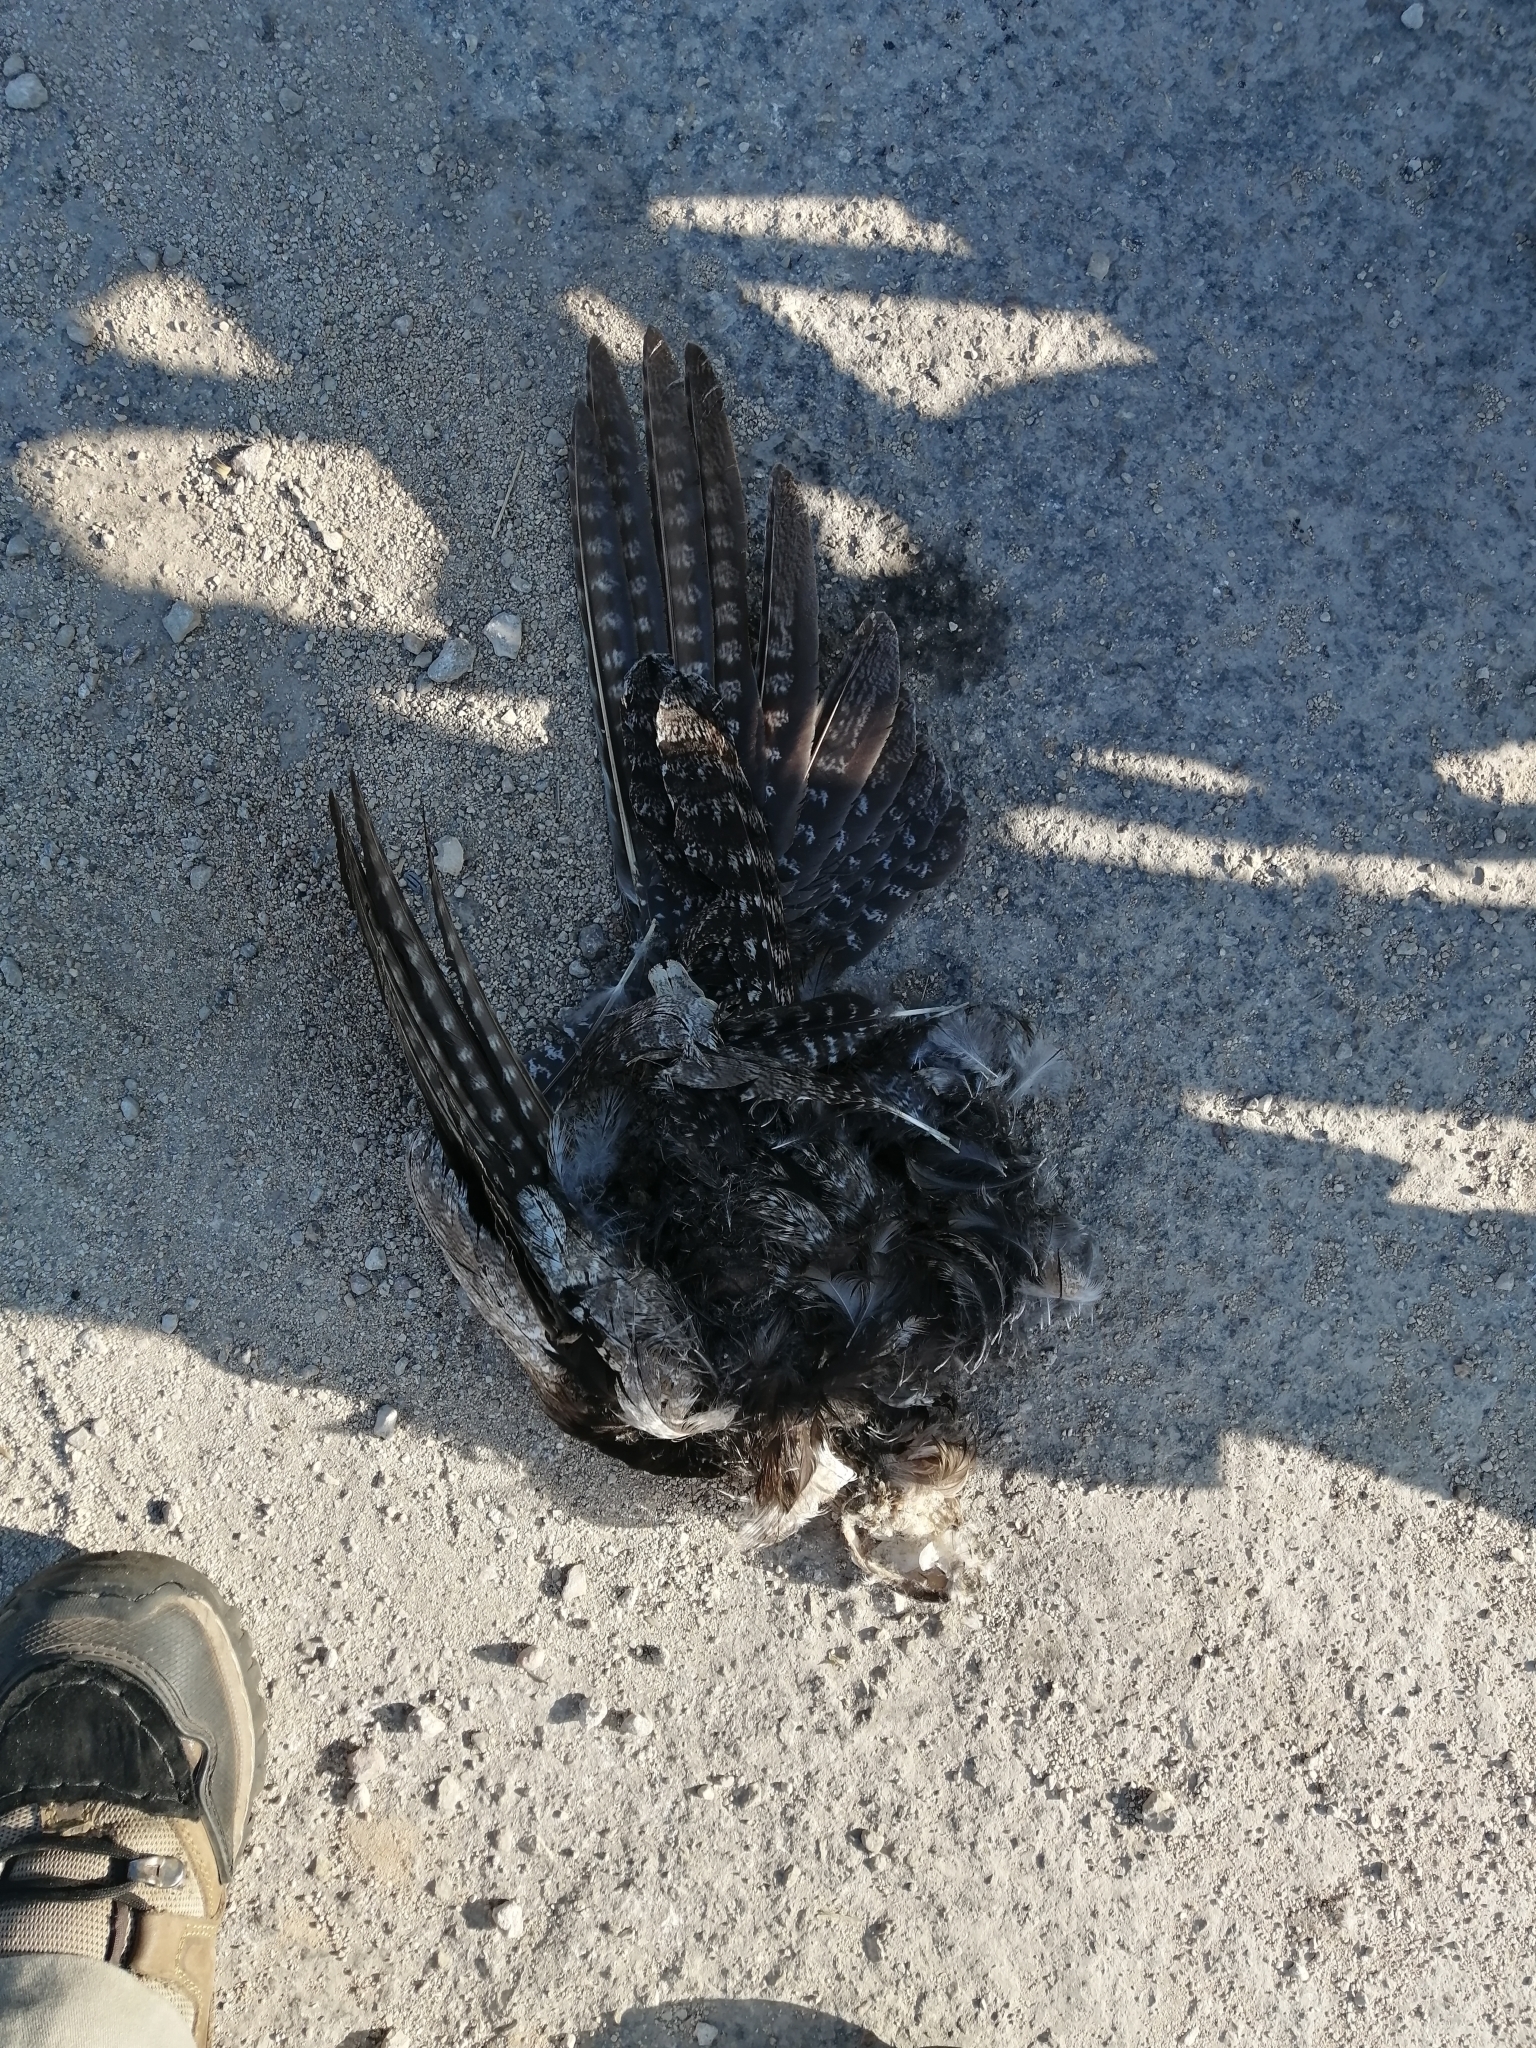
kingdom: Animalia
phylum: Chordata
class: Aves
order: Caprimulgiformes
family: Caprimulgidae
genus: Chordeiles
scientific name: Chordeiles acutipennis
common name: Lesser nighthawk
